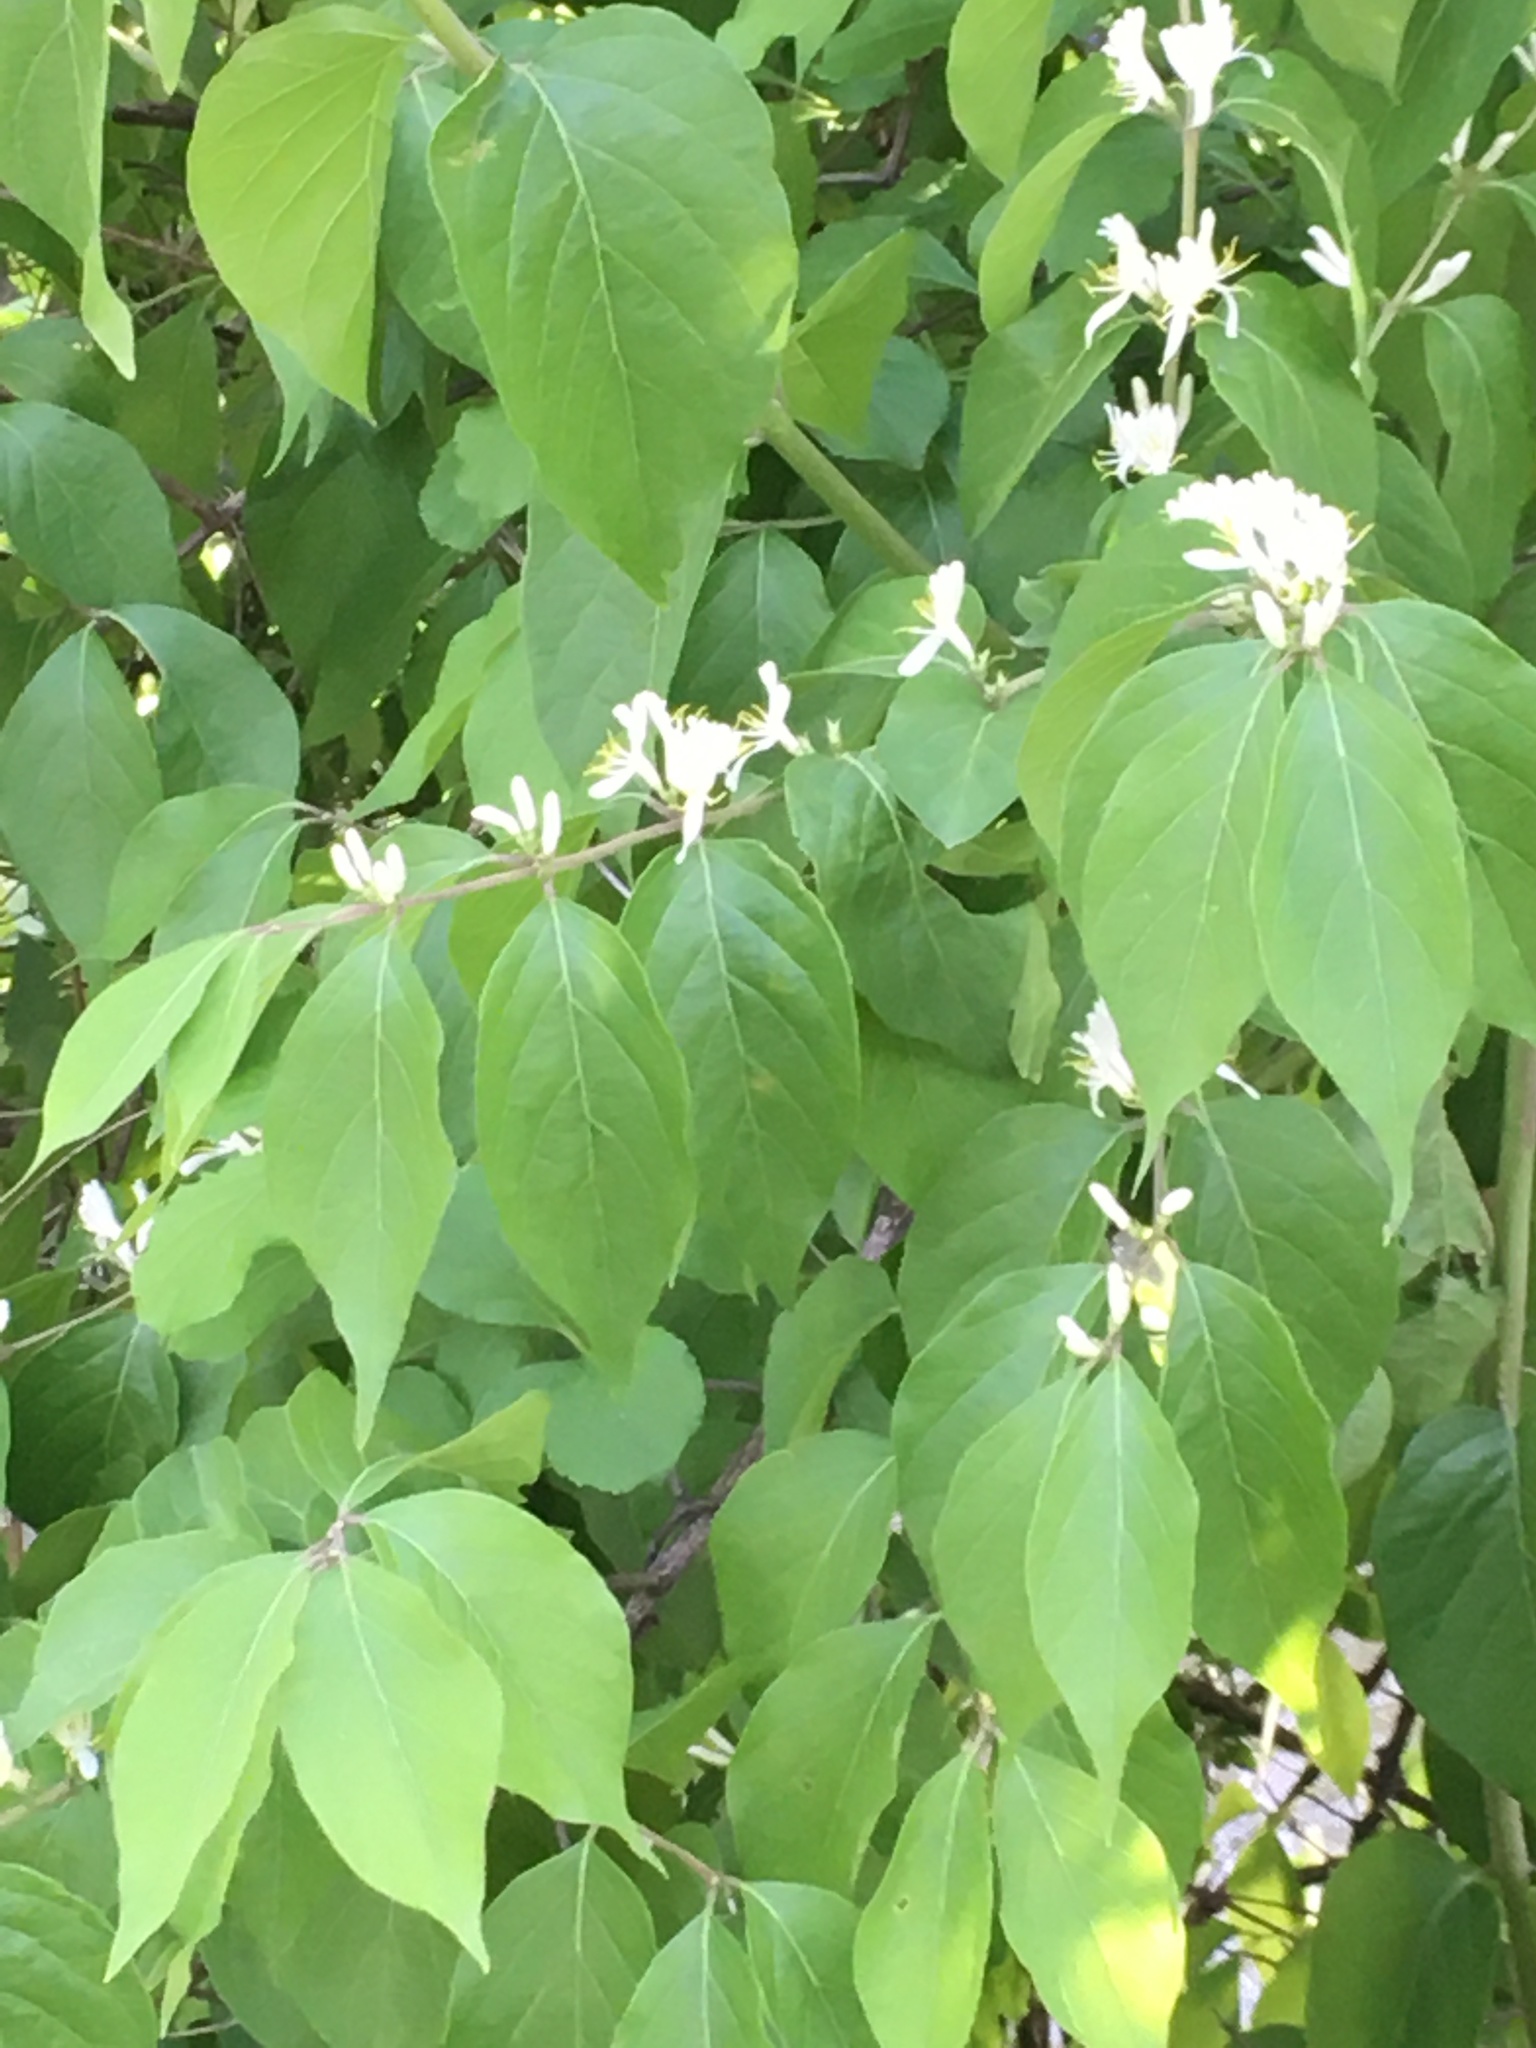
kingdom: Plantae
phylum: Tracheophyta
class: Magnoliopsida
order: Dipsacales
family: Caprifoliaceae
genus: Lonicera
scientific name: Lonicera maackii
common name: Amur honeysuckle
